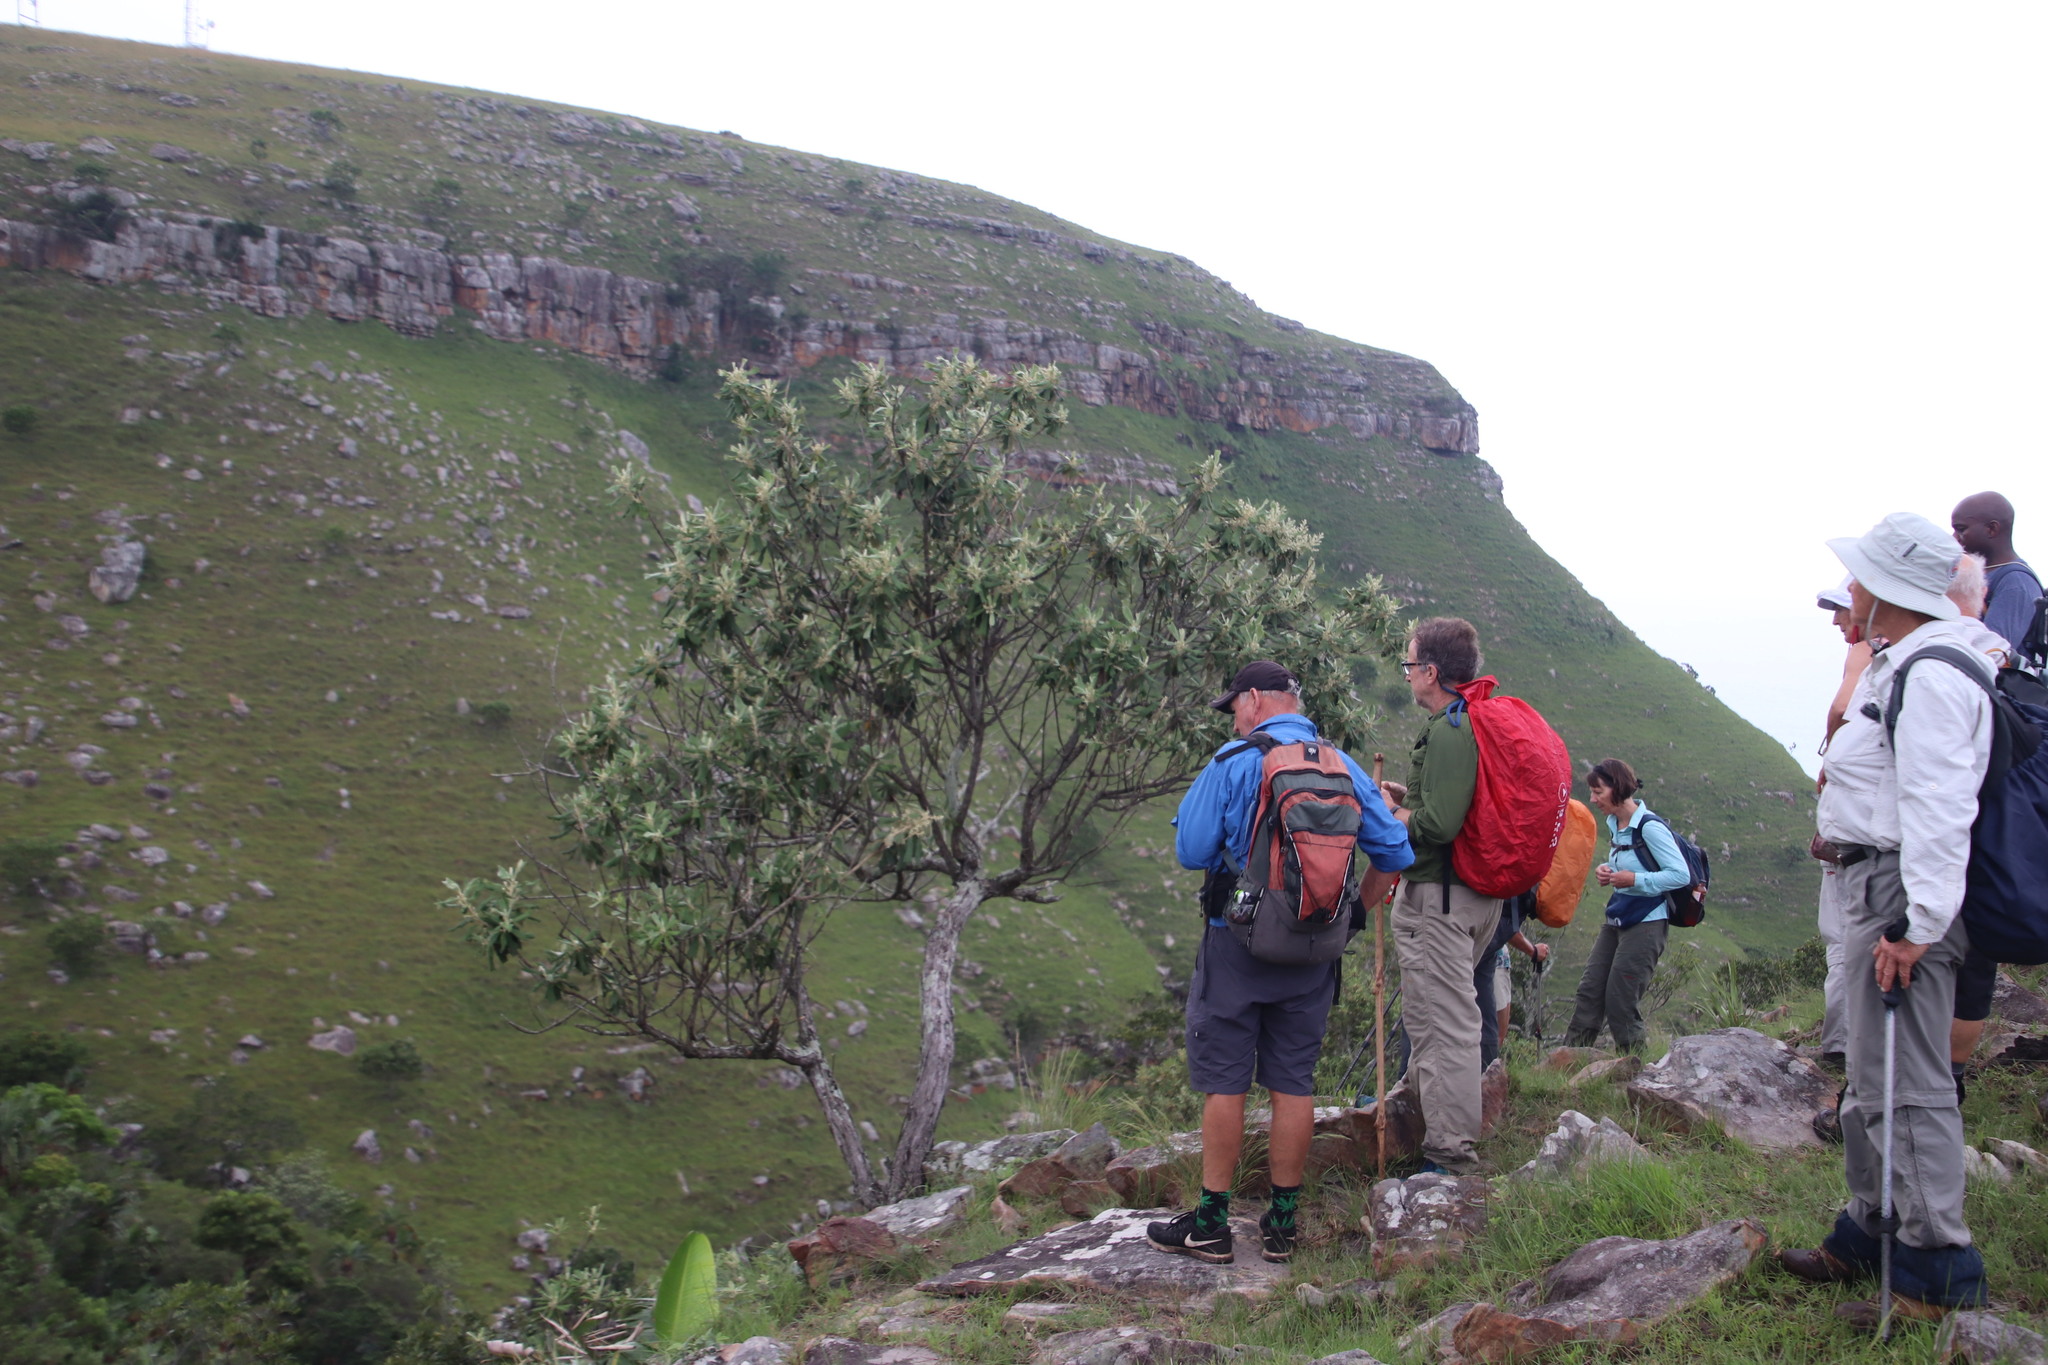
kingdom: Plantae
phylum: Tracheophyta
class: Magnoliopsida
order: Asterales
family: Asteraceae
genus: Tarchonanthus
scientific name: Tarchonanthus trilobus
